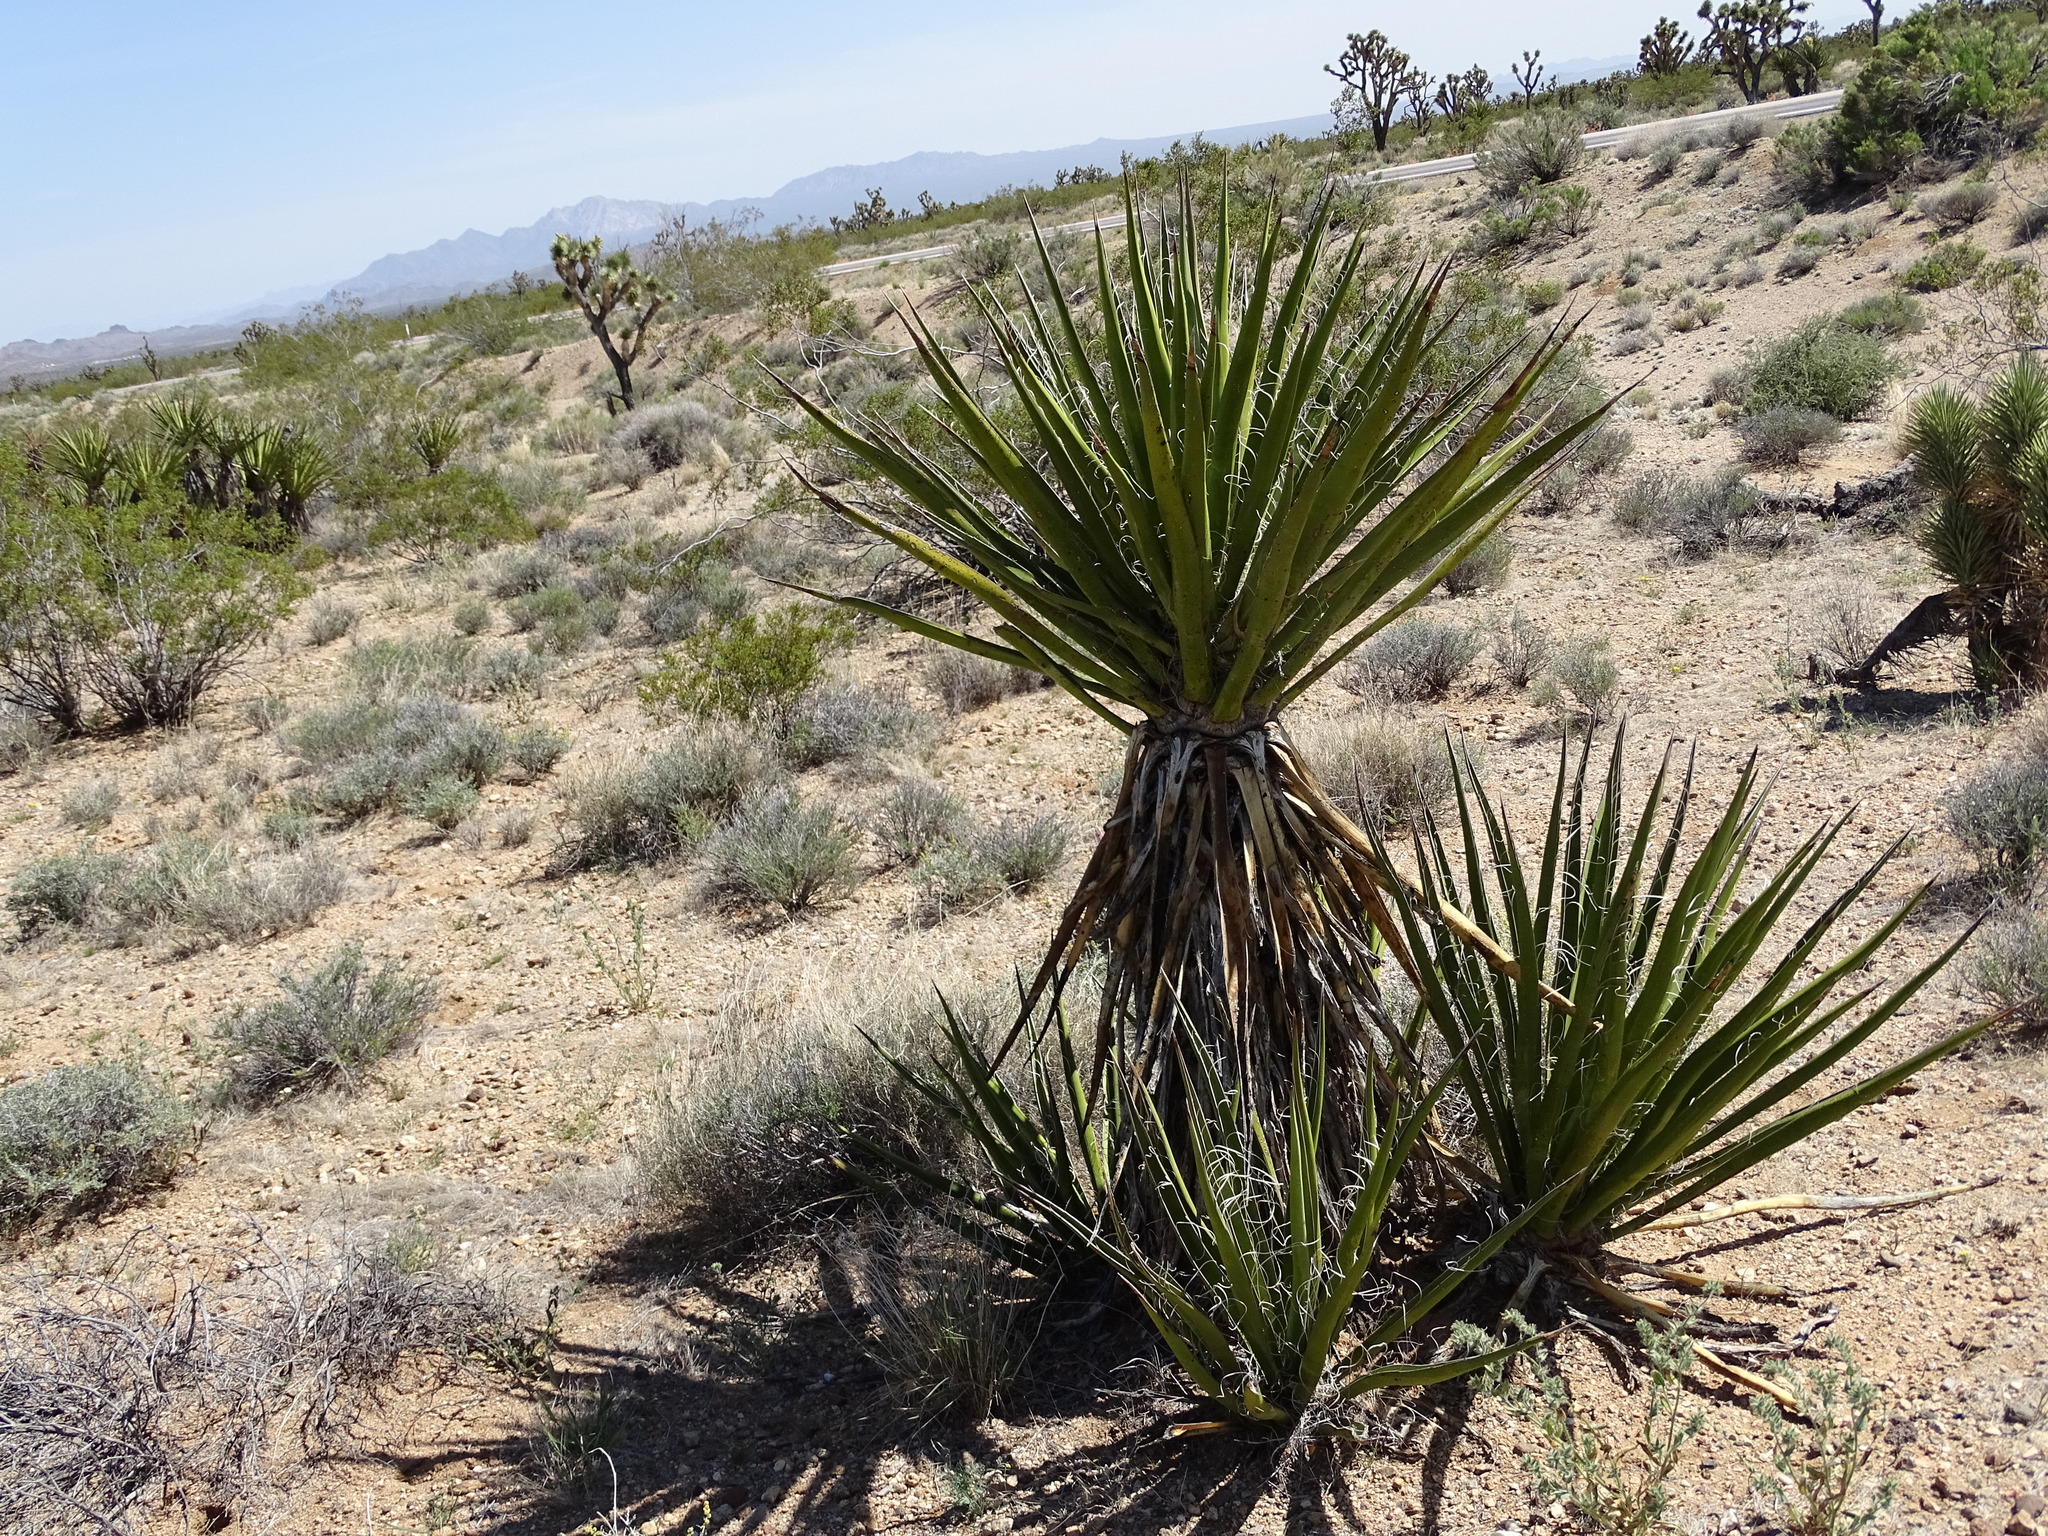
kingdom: Plantae
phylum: Tracheophyta
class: Liliopsida
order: Asparagales
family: Asparagaceae
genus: Yucca
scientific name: Yucca schidigera
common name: Mojave yucca
